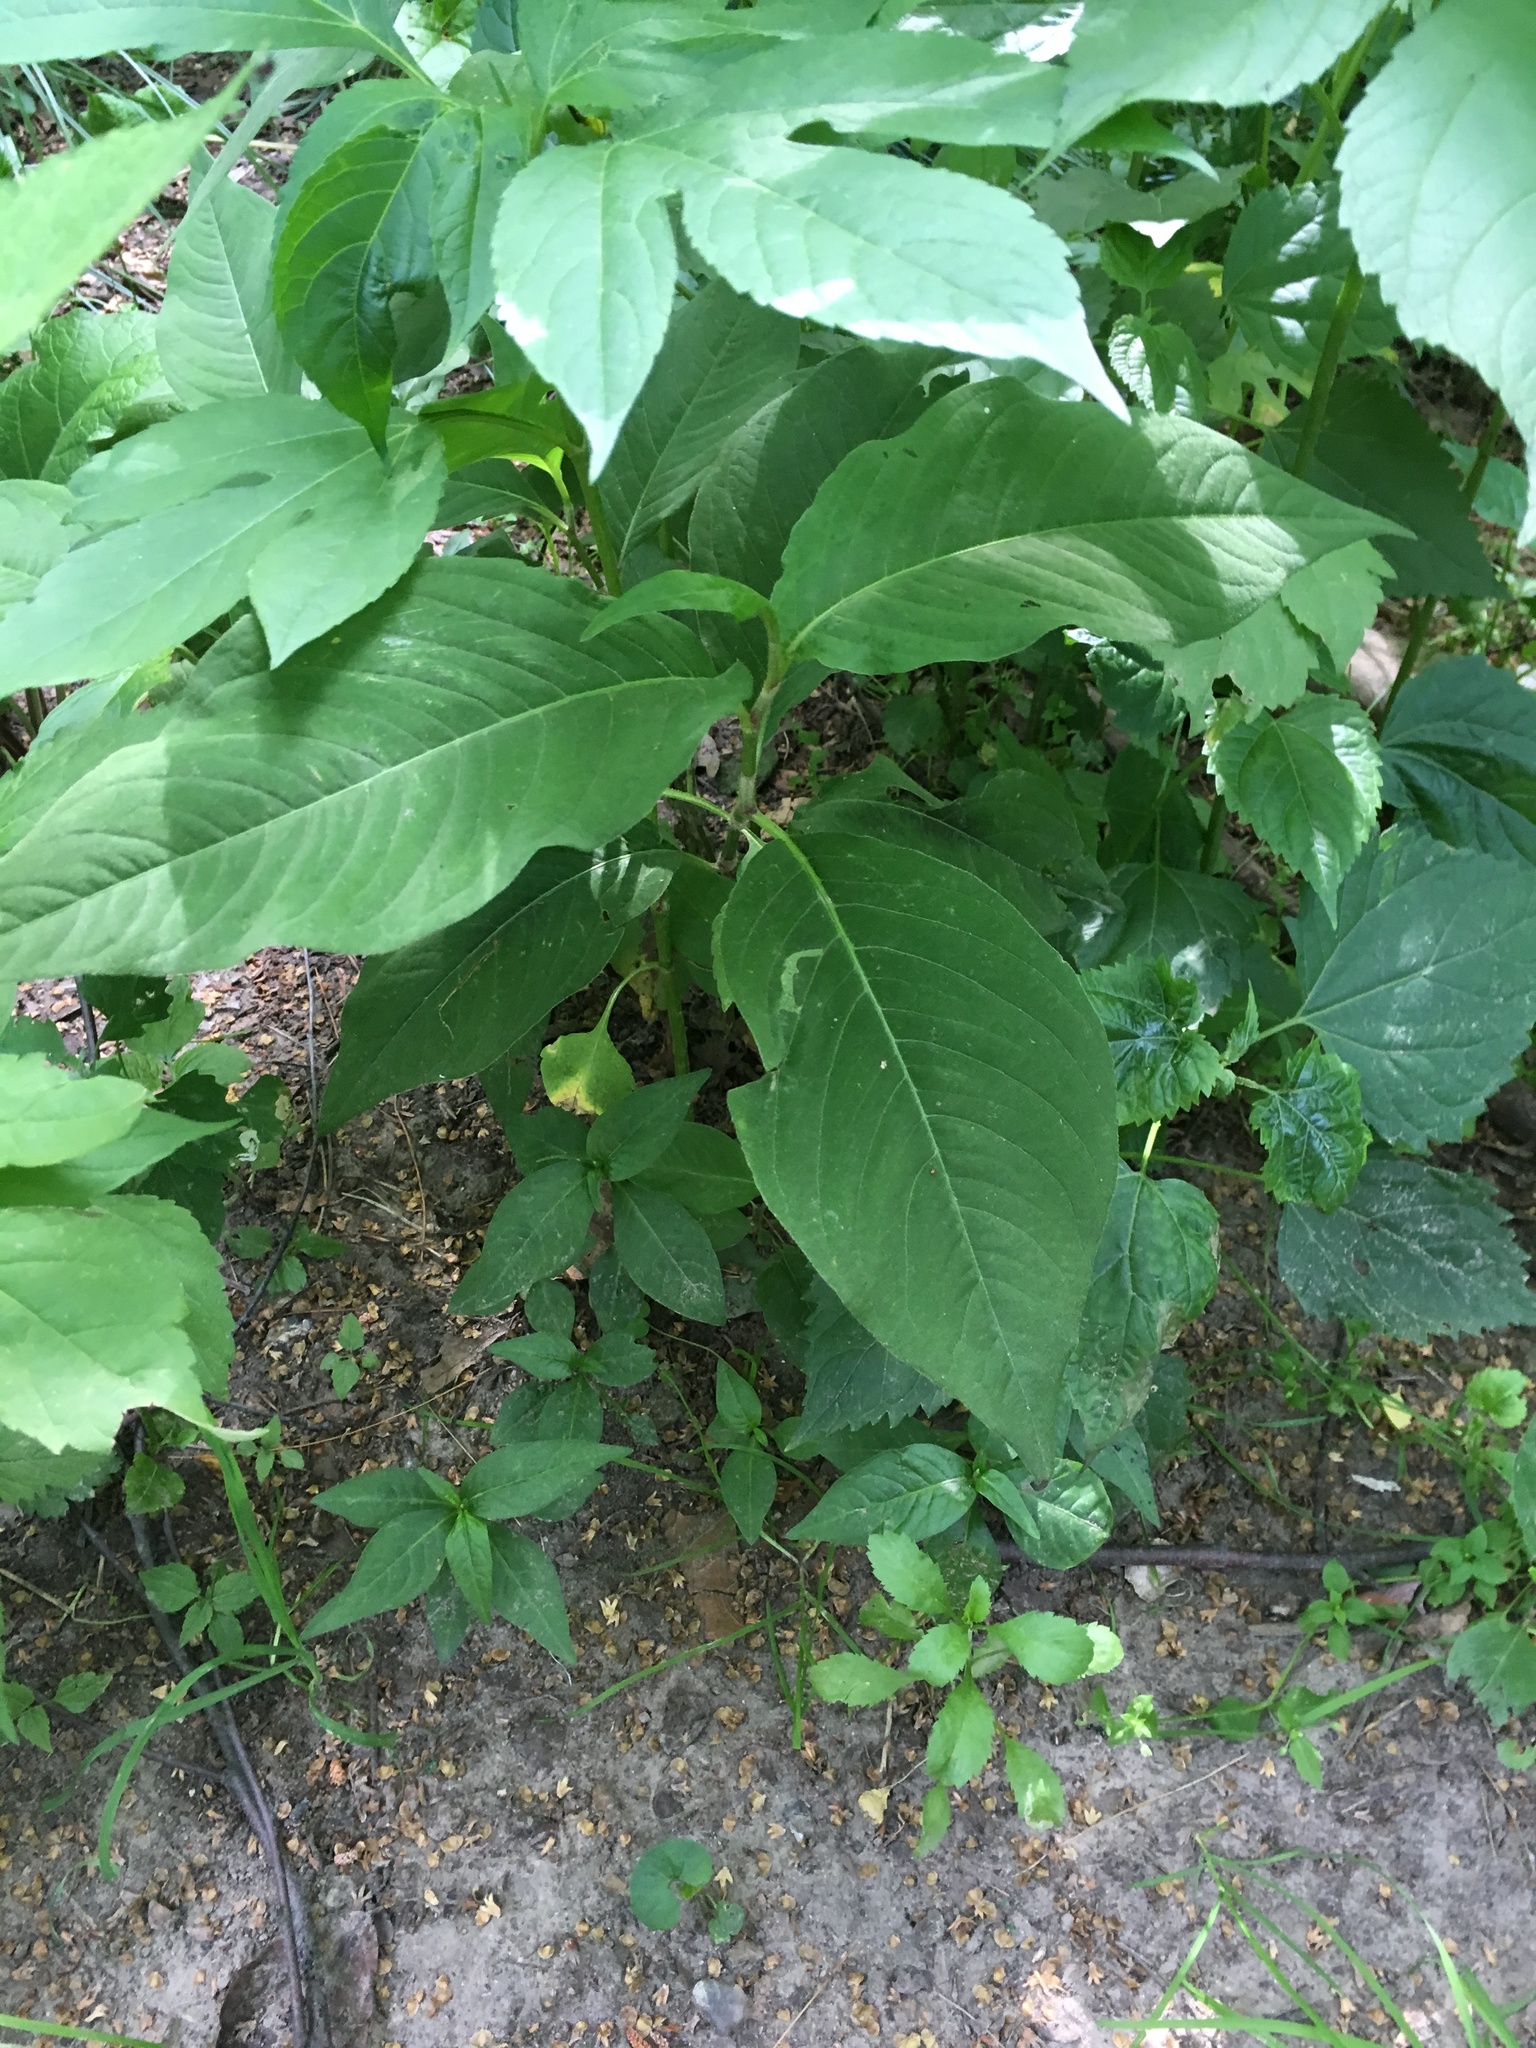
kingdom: Plantae
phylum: Tracheophyta
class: Magnoliopsida
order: Caryophyllales
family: Polygonaceae
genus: Persicaria
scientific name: Persicaria virginiana
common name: Jumpseed
